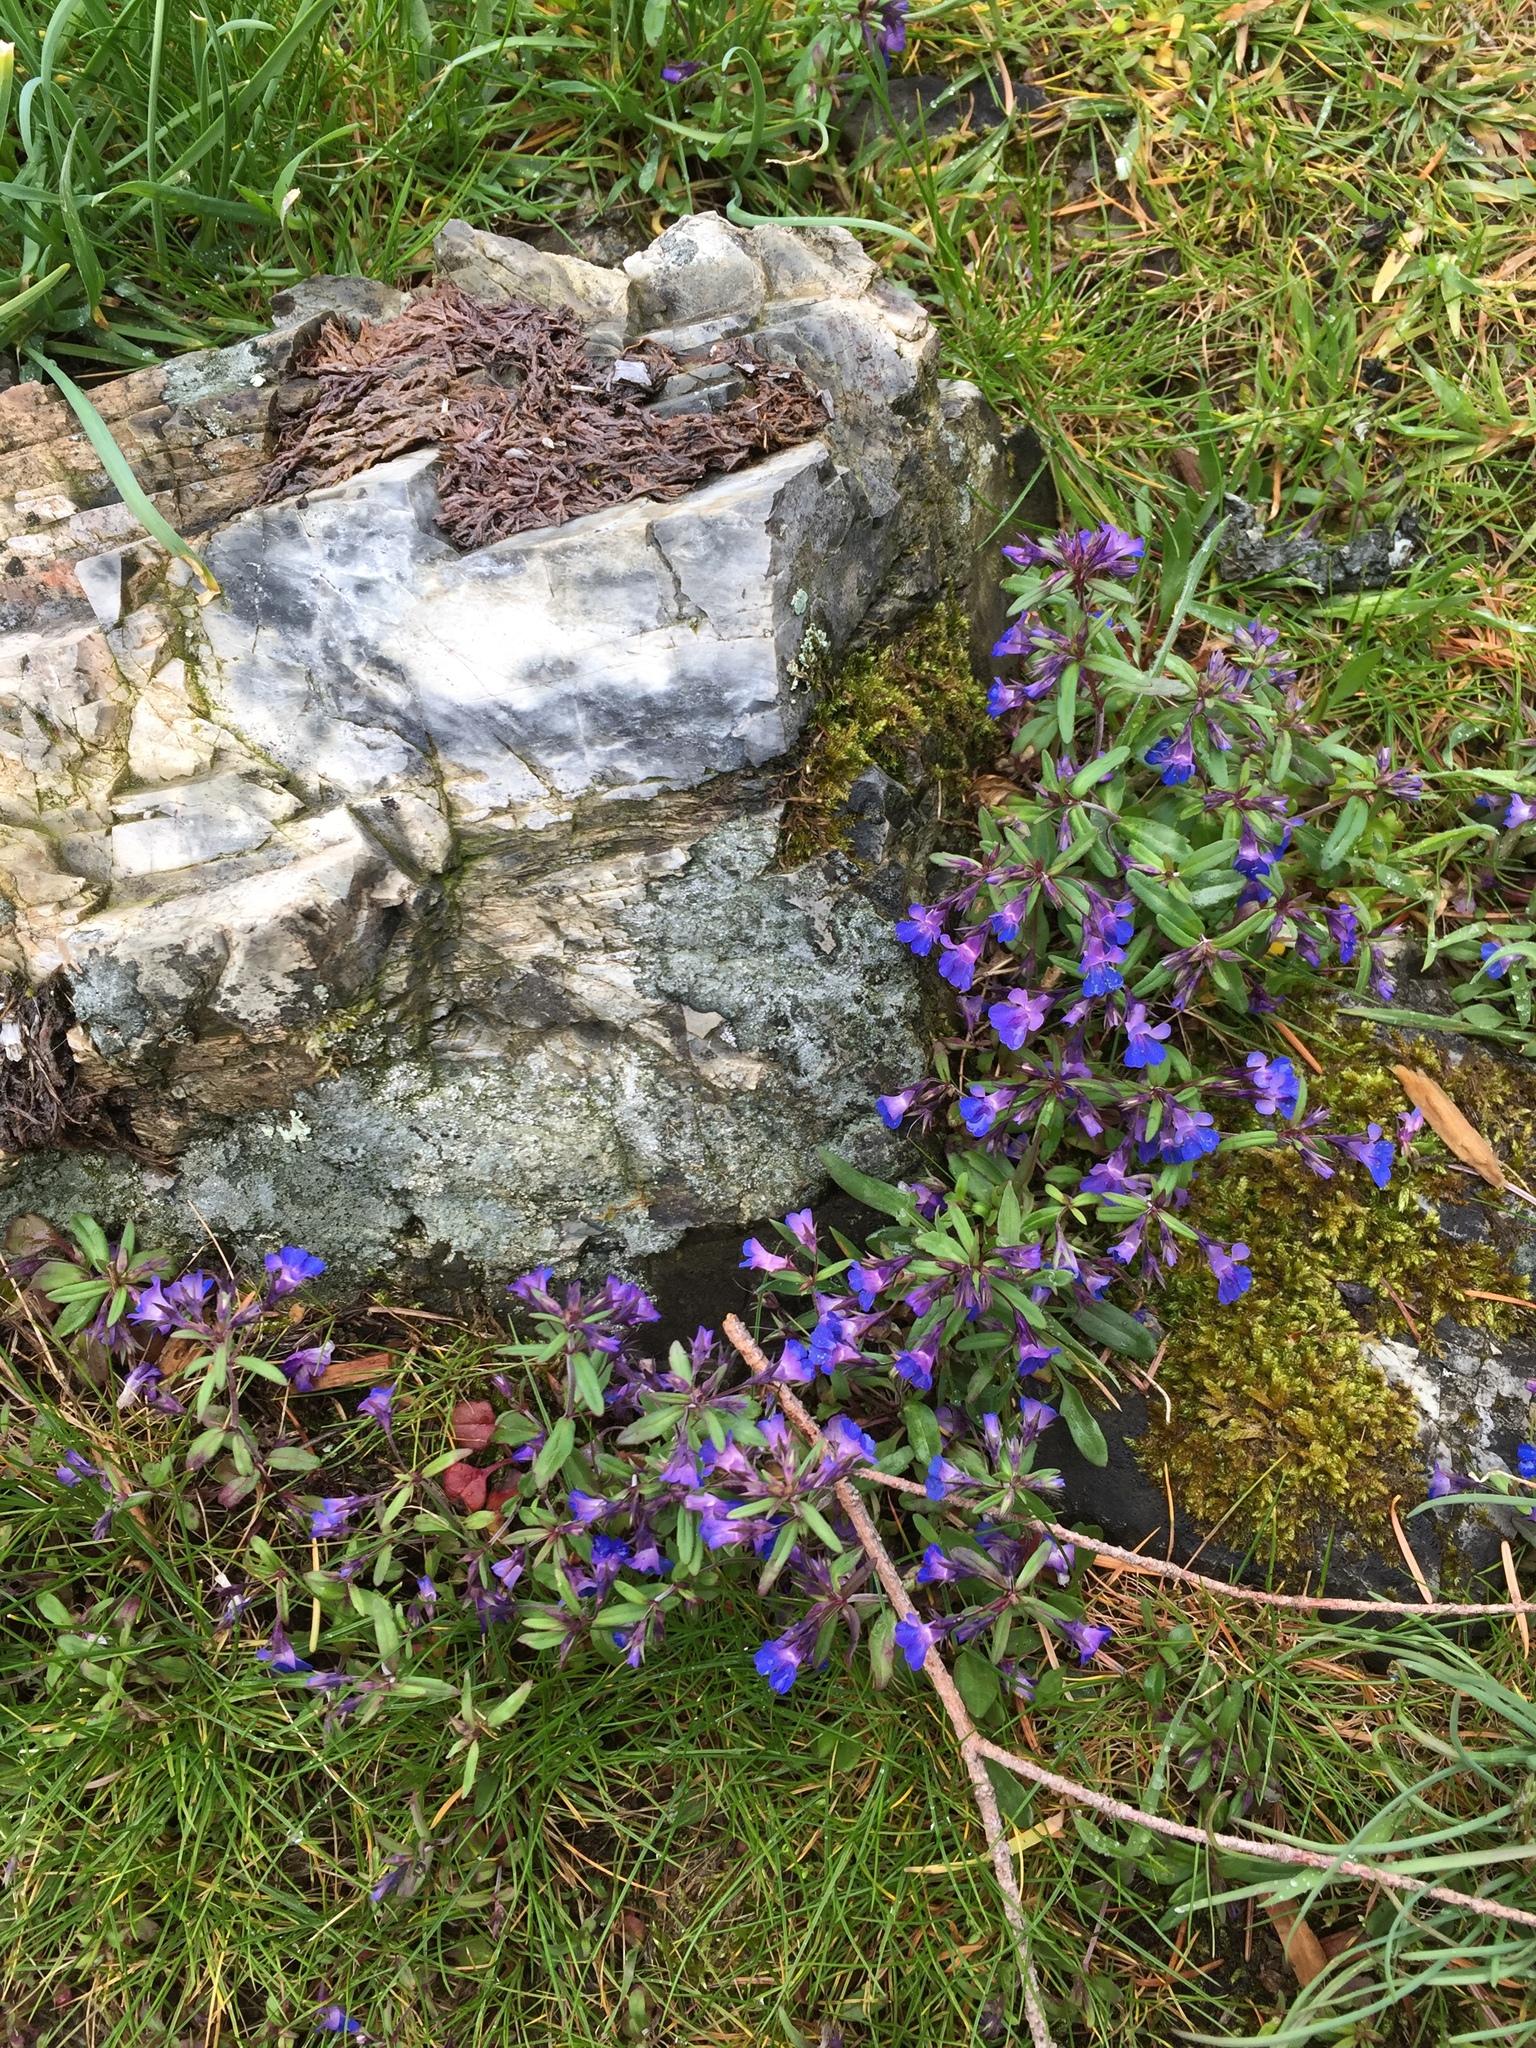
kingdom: Plantae
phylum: Tracheophyta
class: Magnoliopsida
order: Lamiales
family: Plantaginaceae
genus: Collinsia
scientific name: Collinsia parviflora
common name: Blue-lips
